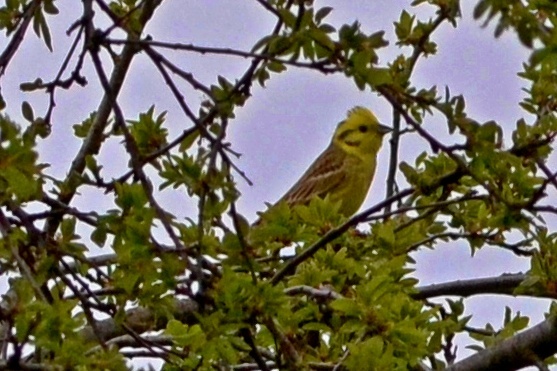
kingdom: Animalia
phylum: Chordata
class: Aves
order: Passeriformes
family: Emberizidae
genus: Emberiza
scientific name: Emberiza citrinella
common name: Yellowhammer
